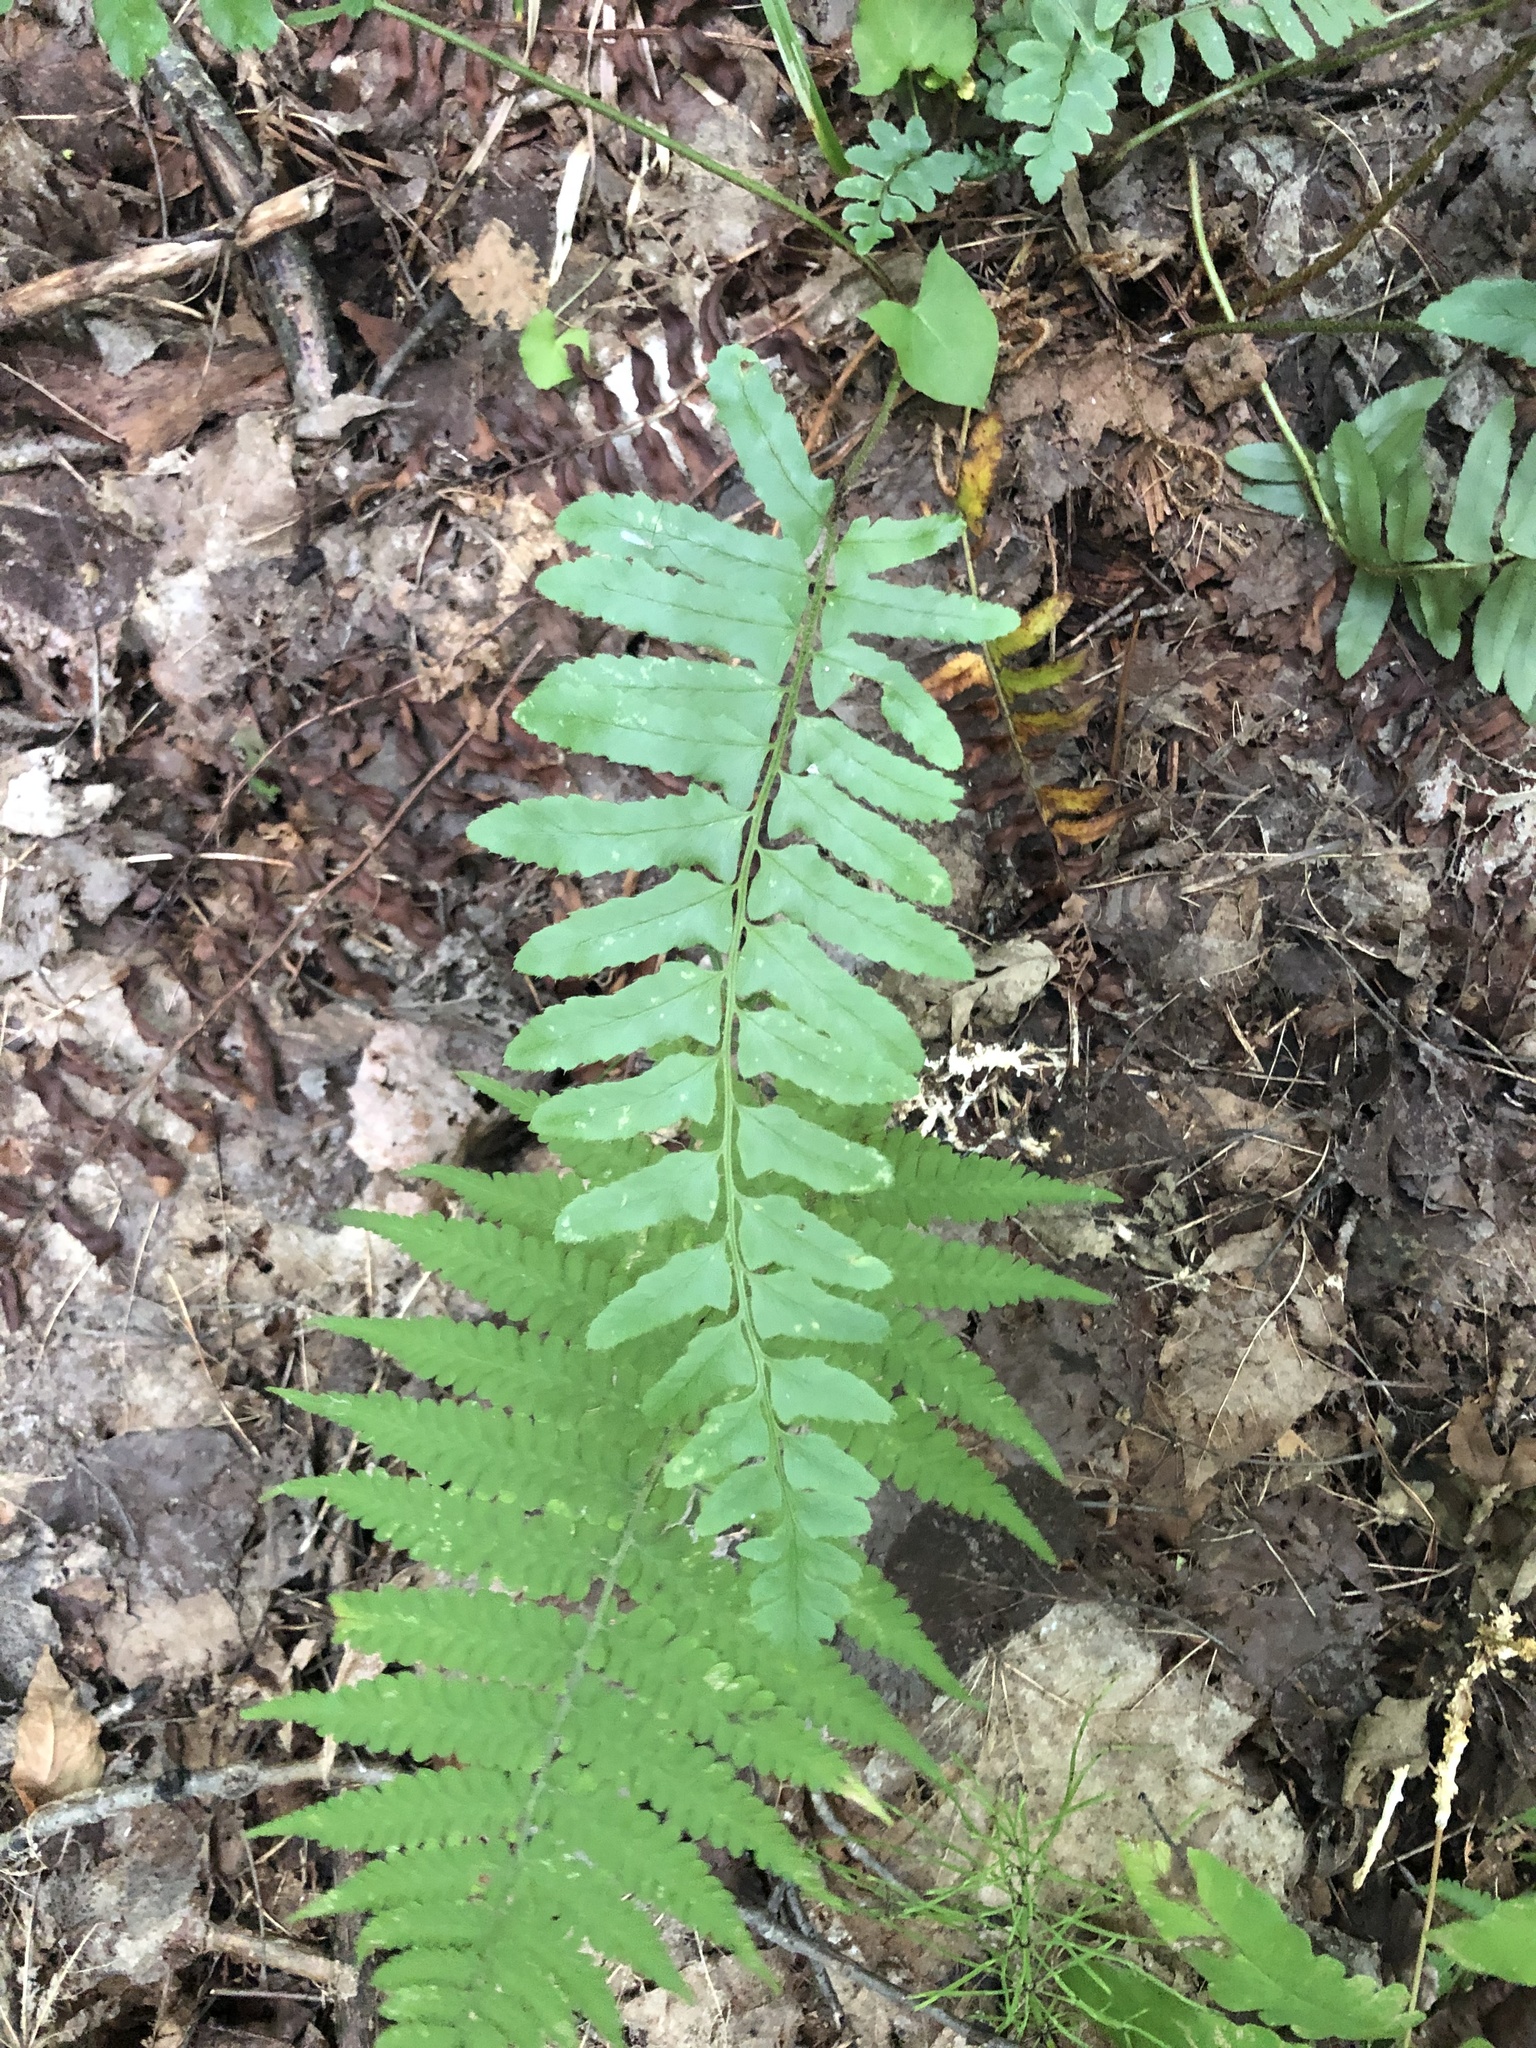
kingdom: Plantae
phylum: Tracheophyta
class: Polypodiopsida
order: Polypodiales
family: Dryopteridaceae
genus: Polystichum
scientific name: Polystichum acrostichoides
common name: Christmas fern
